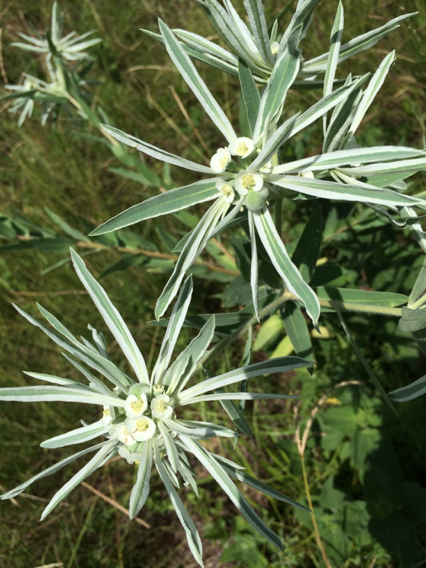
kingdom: Plantae
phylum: Tracheophyta
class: Magnoliopsida
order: Malpighiales
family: Euphorbiaceae
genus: Euphorbia
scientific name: Euphorbia bicolor
